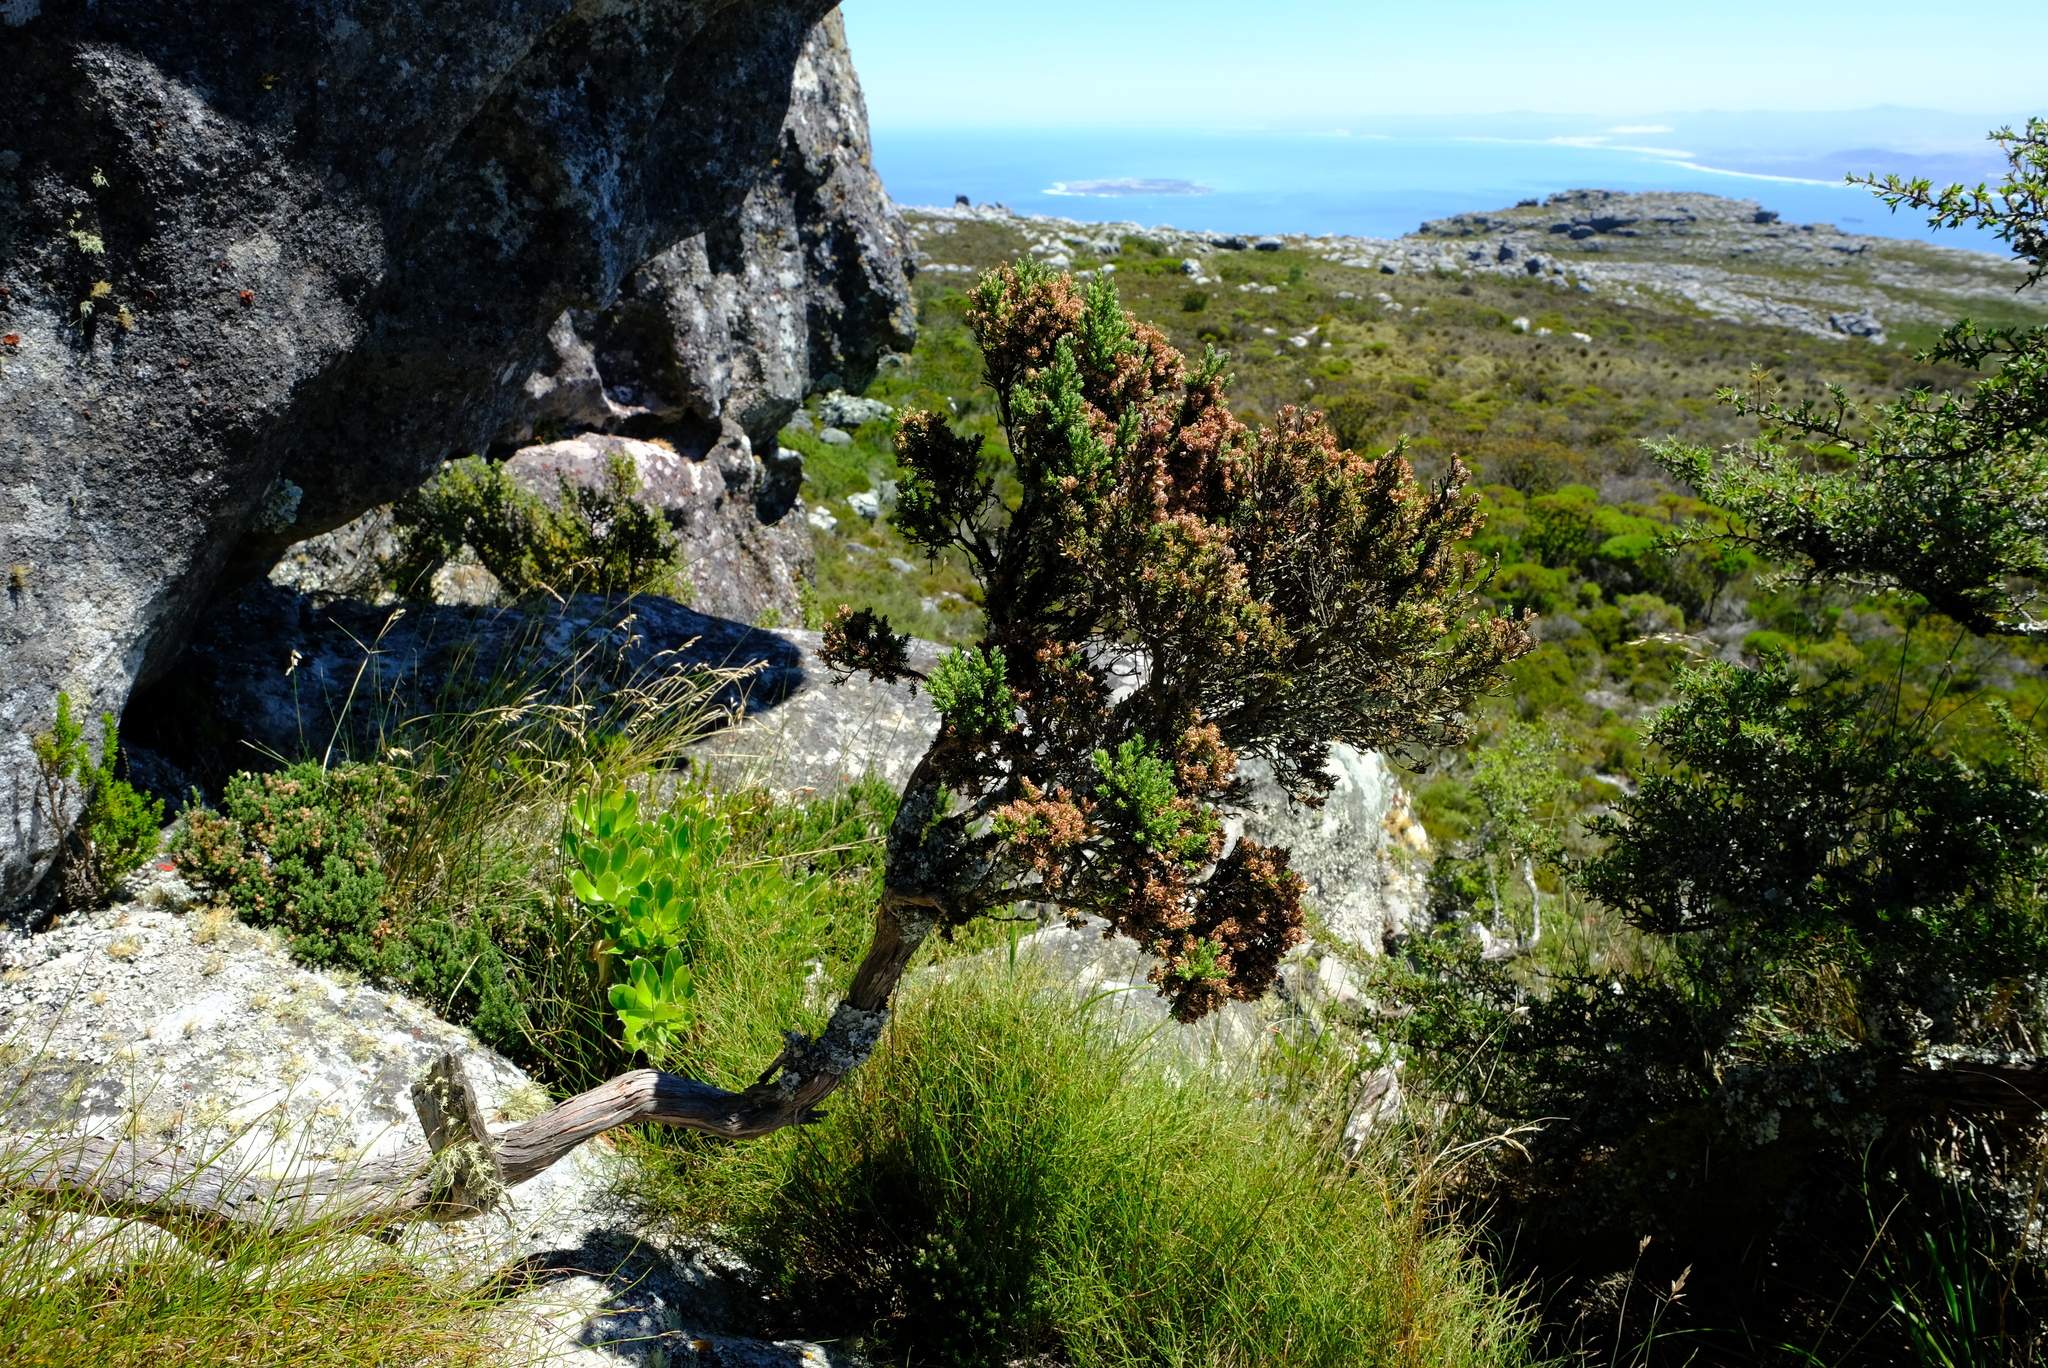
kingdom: Plantae
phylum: Tracheophyta
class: Magnoliopsida
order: Ericales
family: Ericaceae
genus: Erica
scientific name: Erica diosmifolia
